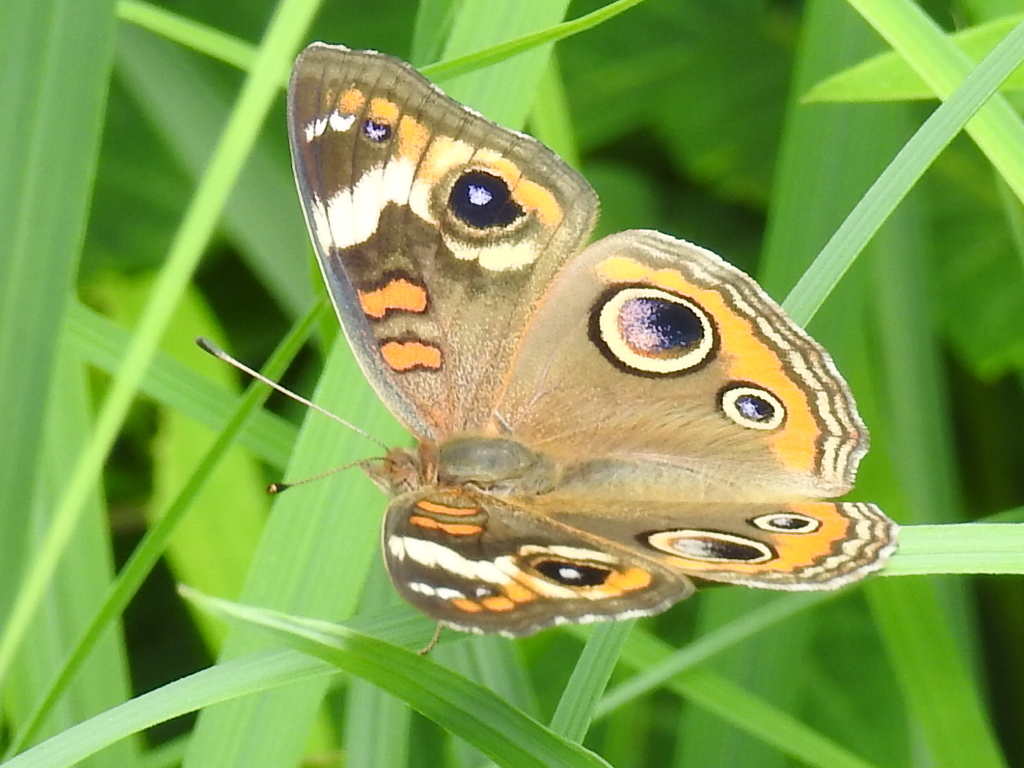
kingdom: Animalia
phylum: Arthropoda
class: Insecta
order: Lepidoptera
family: Nymphalidae
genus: Junonia
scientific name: Junonia coenia
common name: Common buckeye
